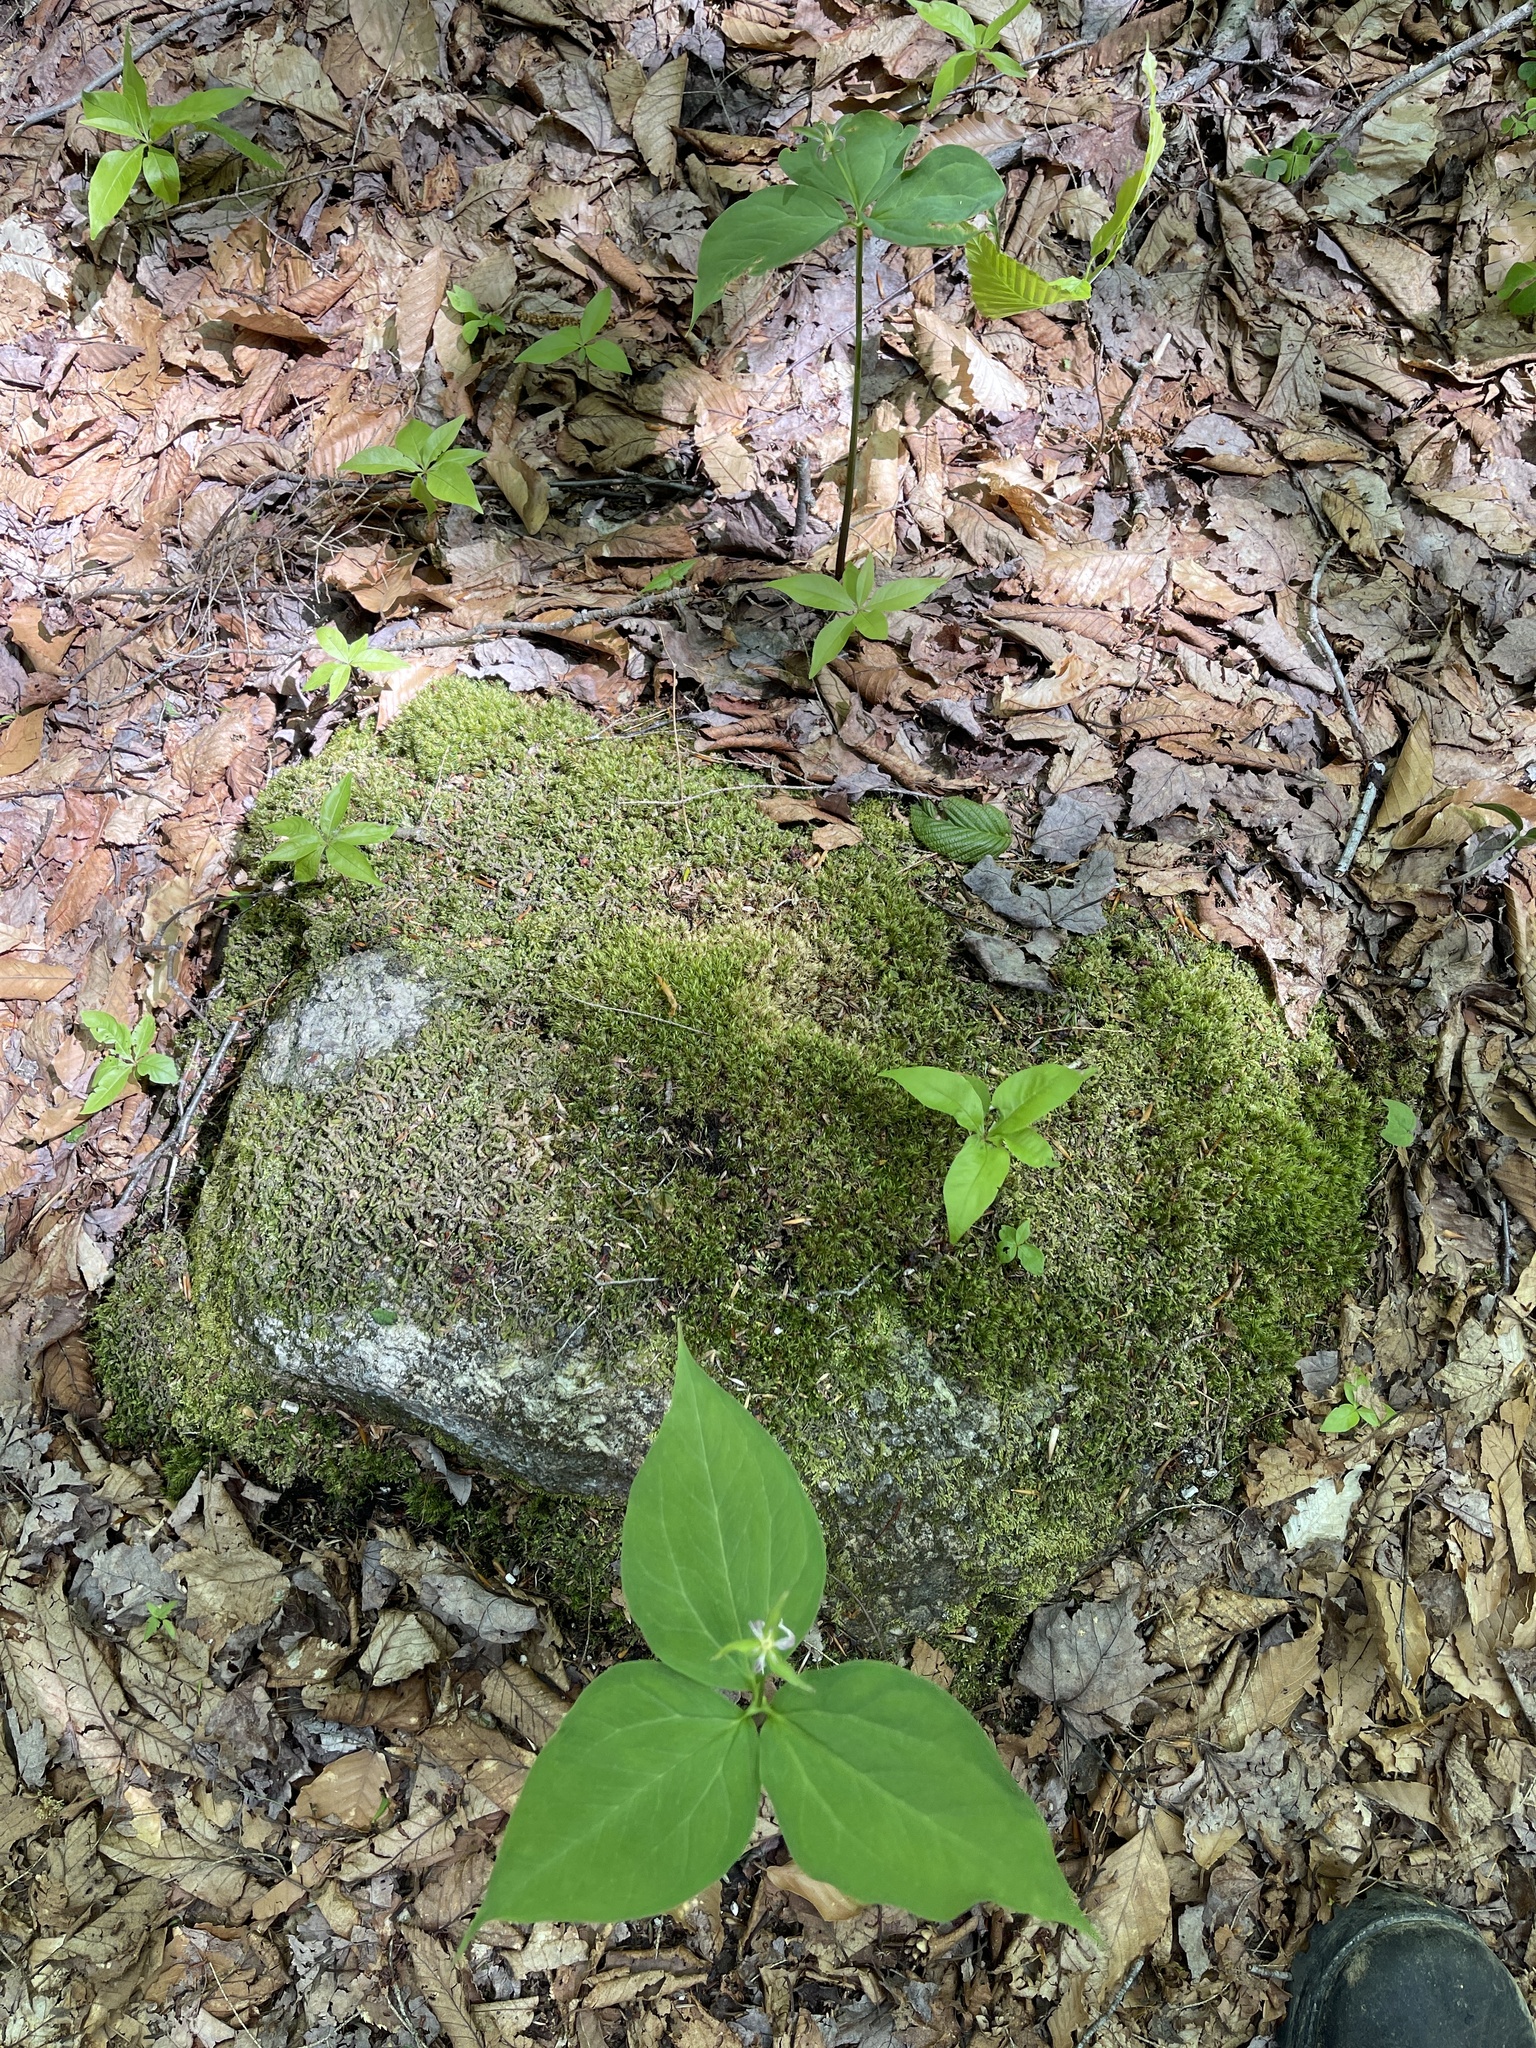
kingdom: Plantae
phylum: Tracheophyta
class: Liliopsida
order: Liliales
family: Melanthiaceae
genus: Trillium
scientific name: Trillium undulatum
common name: Paint trillium
